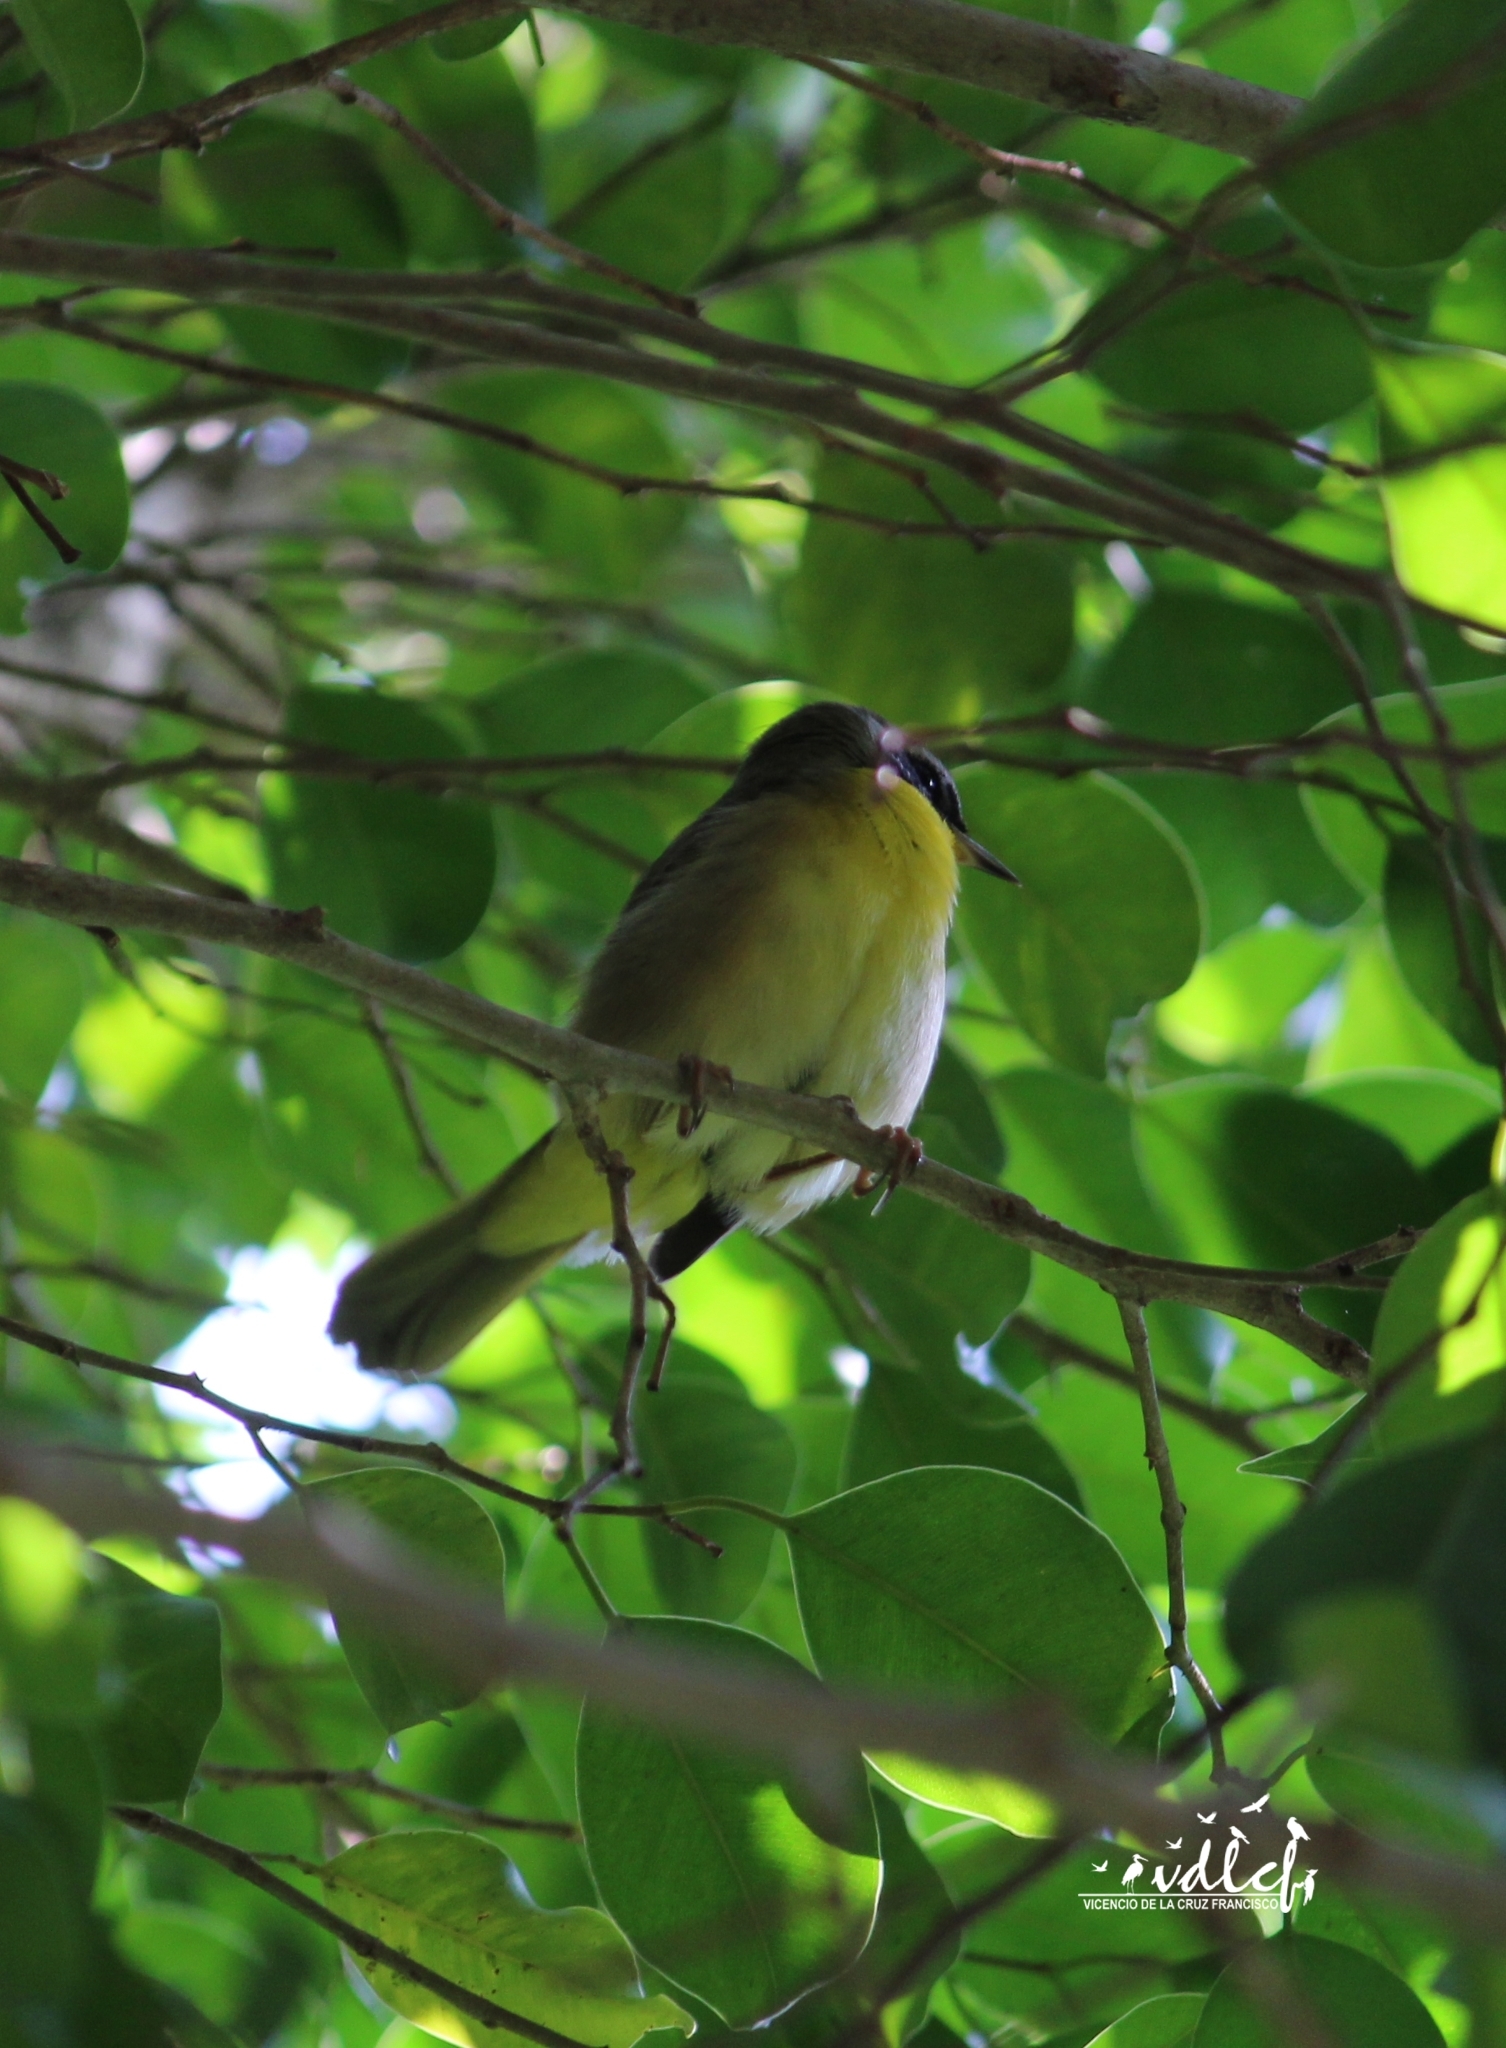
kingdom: Animalia
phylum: Chordata
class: Aves
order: Passeriformes
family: Parulidae
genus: Geothlypis
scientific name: Geothlypis trichas
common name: Common yellowthroat
